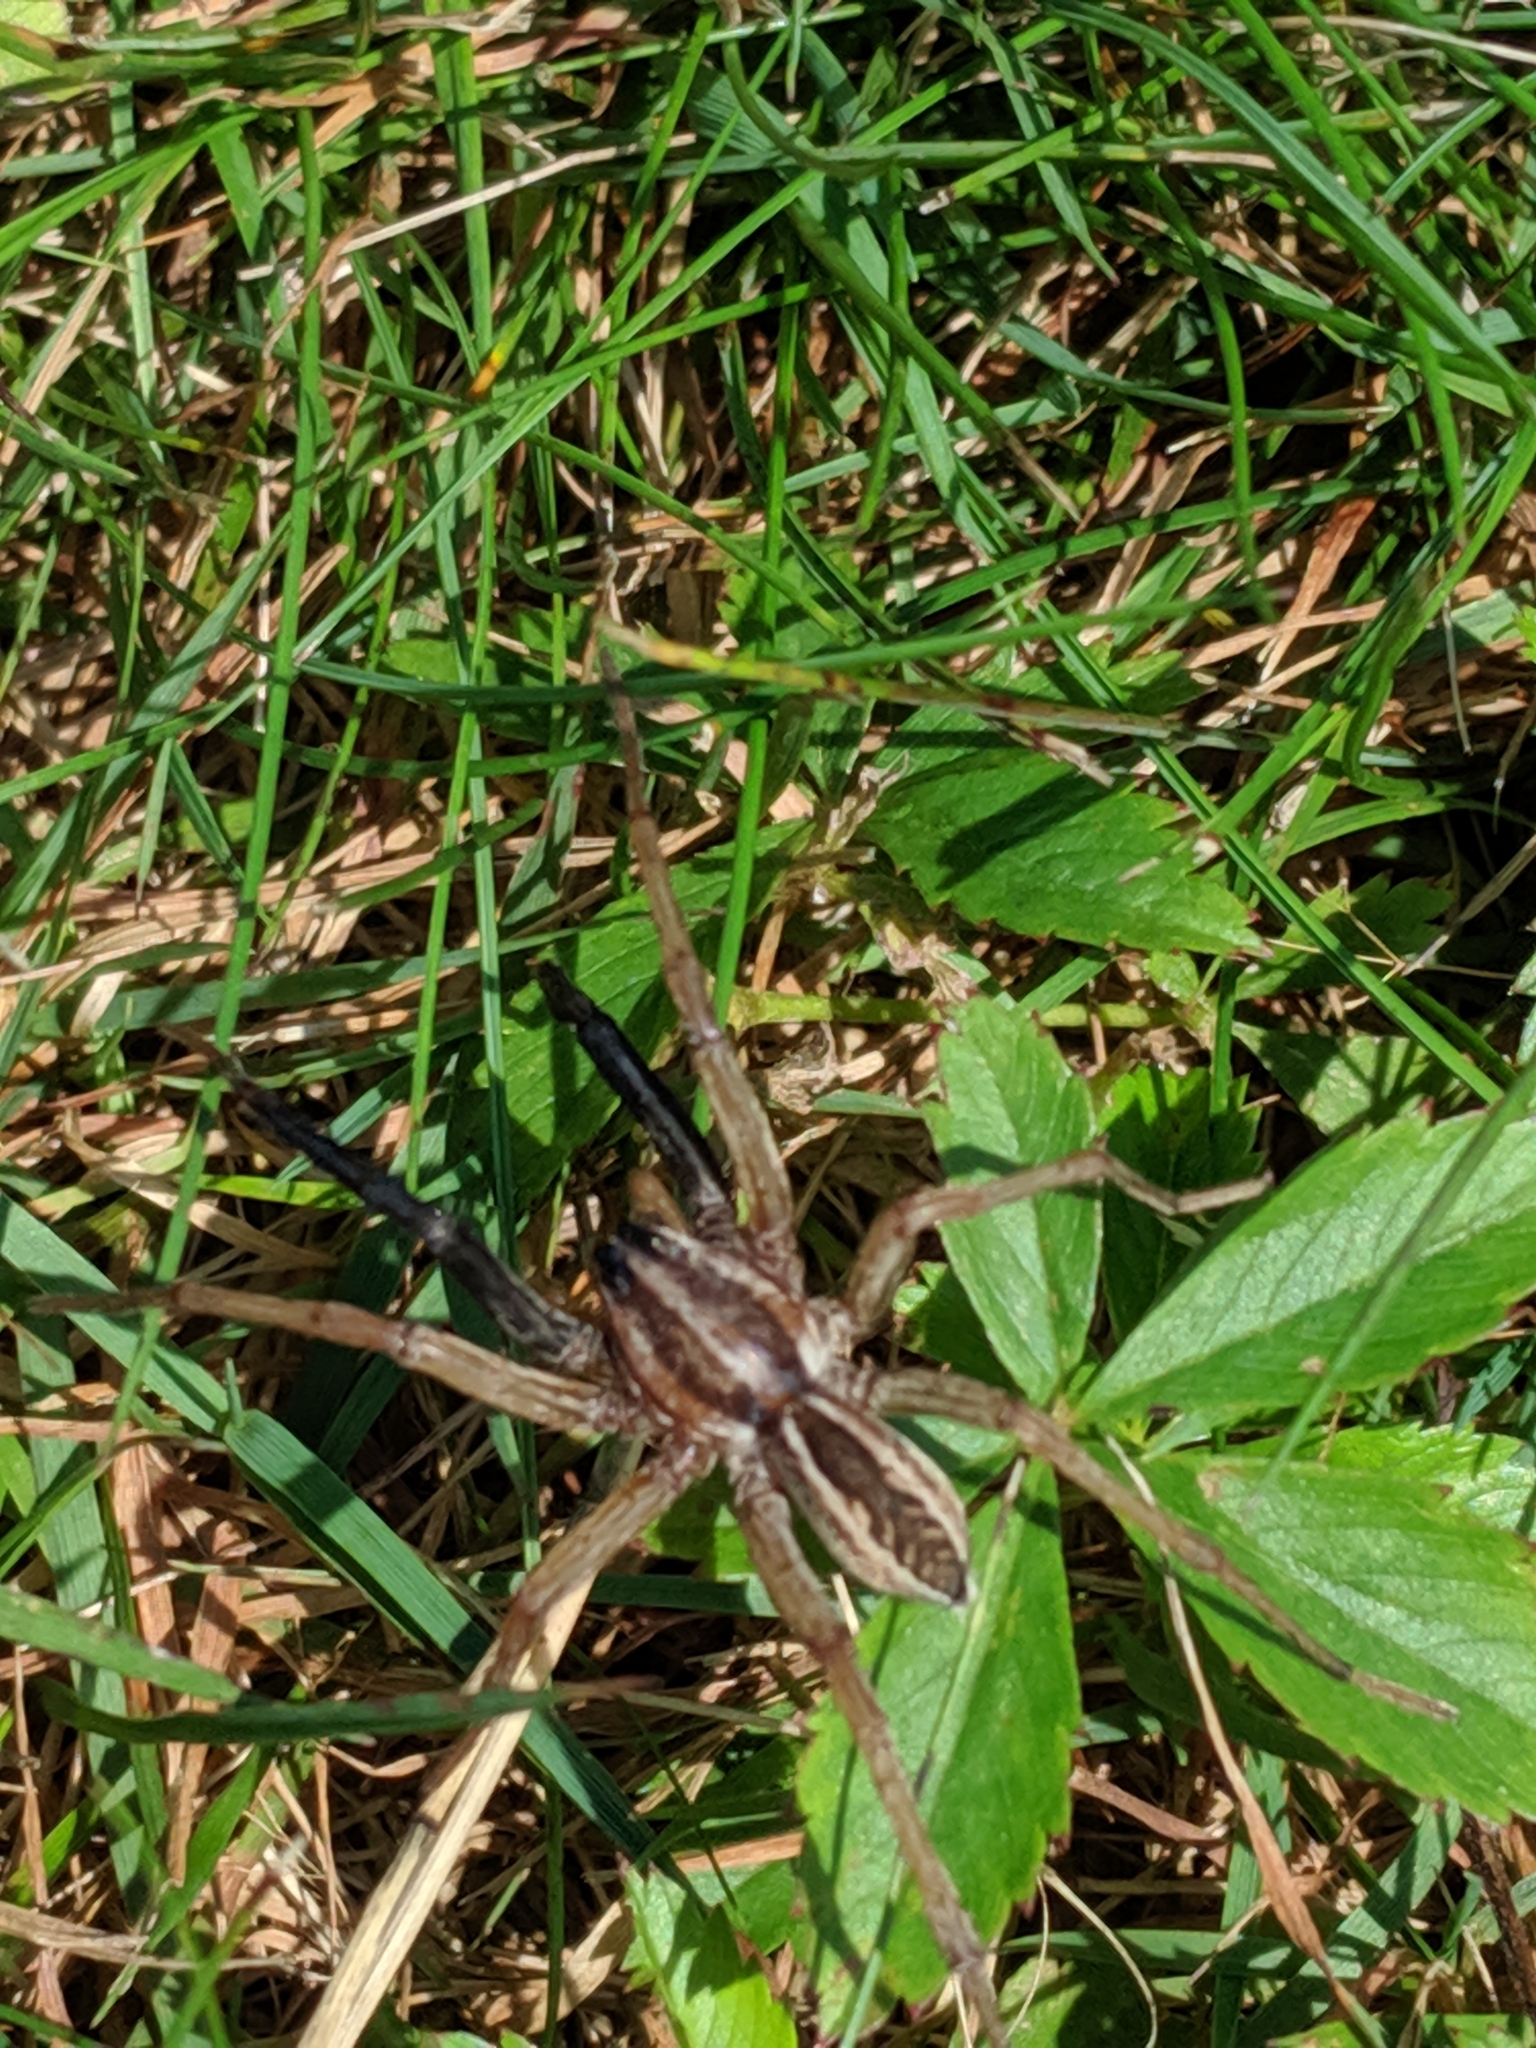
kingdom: Animalia
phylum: Arthropoda
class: Arachnida
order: Araneae
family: Lycosidae
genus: Rabidosa
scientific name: Rabidosa rabida
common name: Rabid wolf spider
